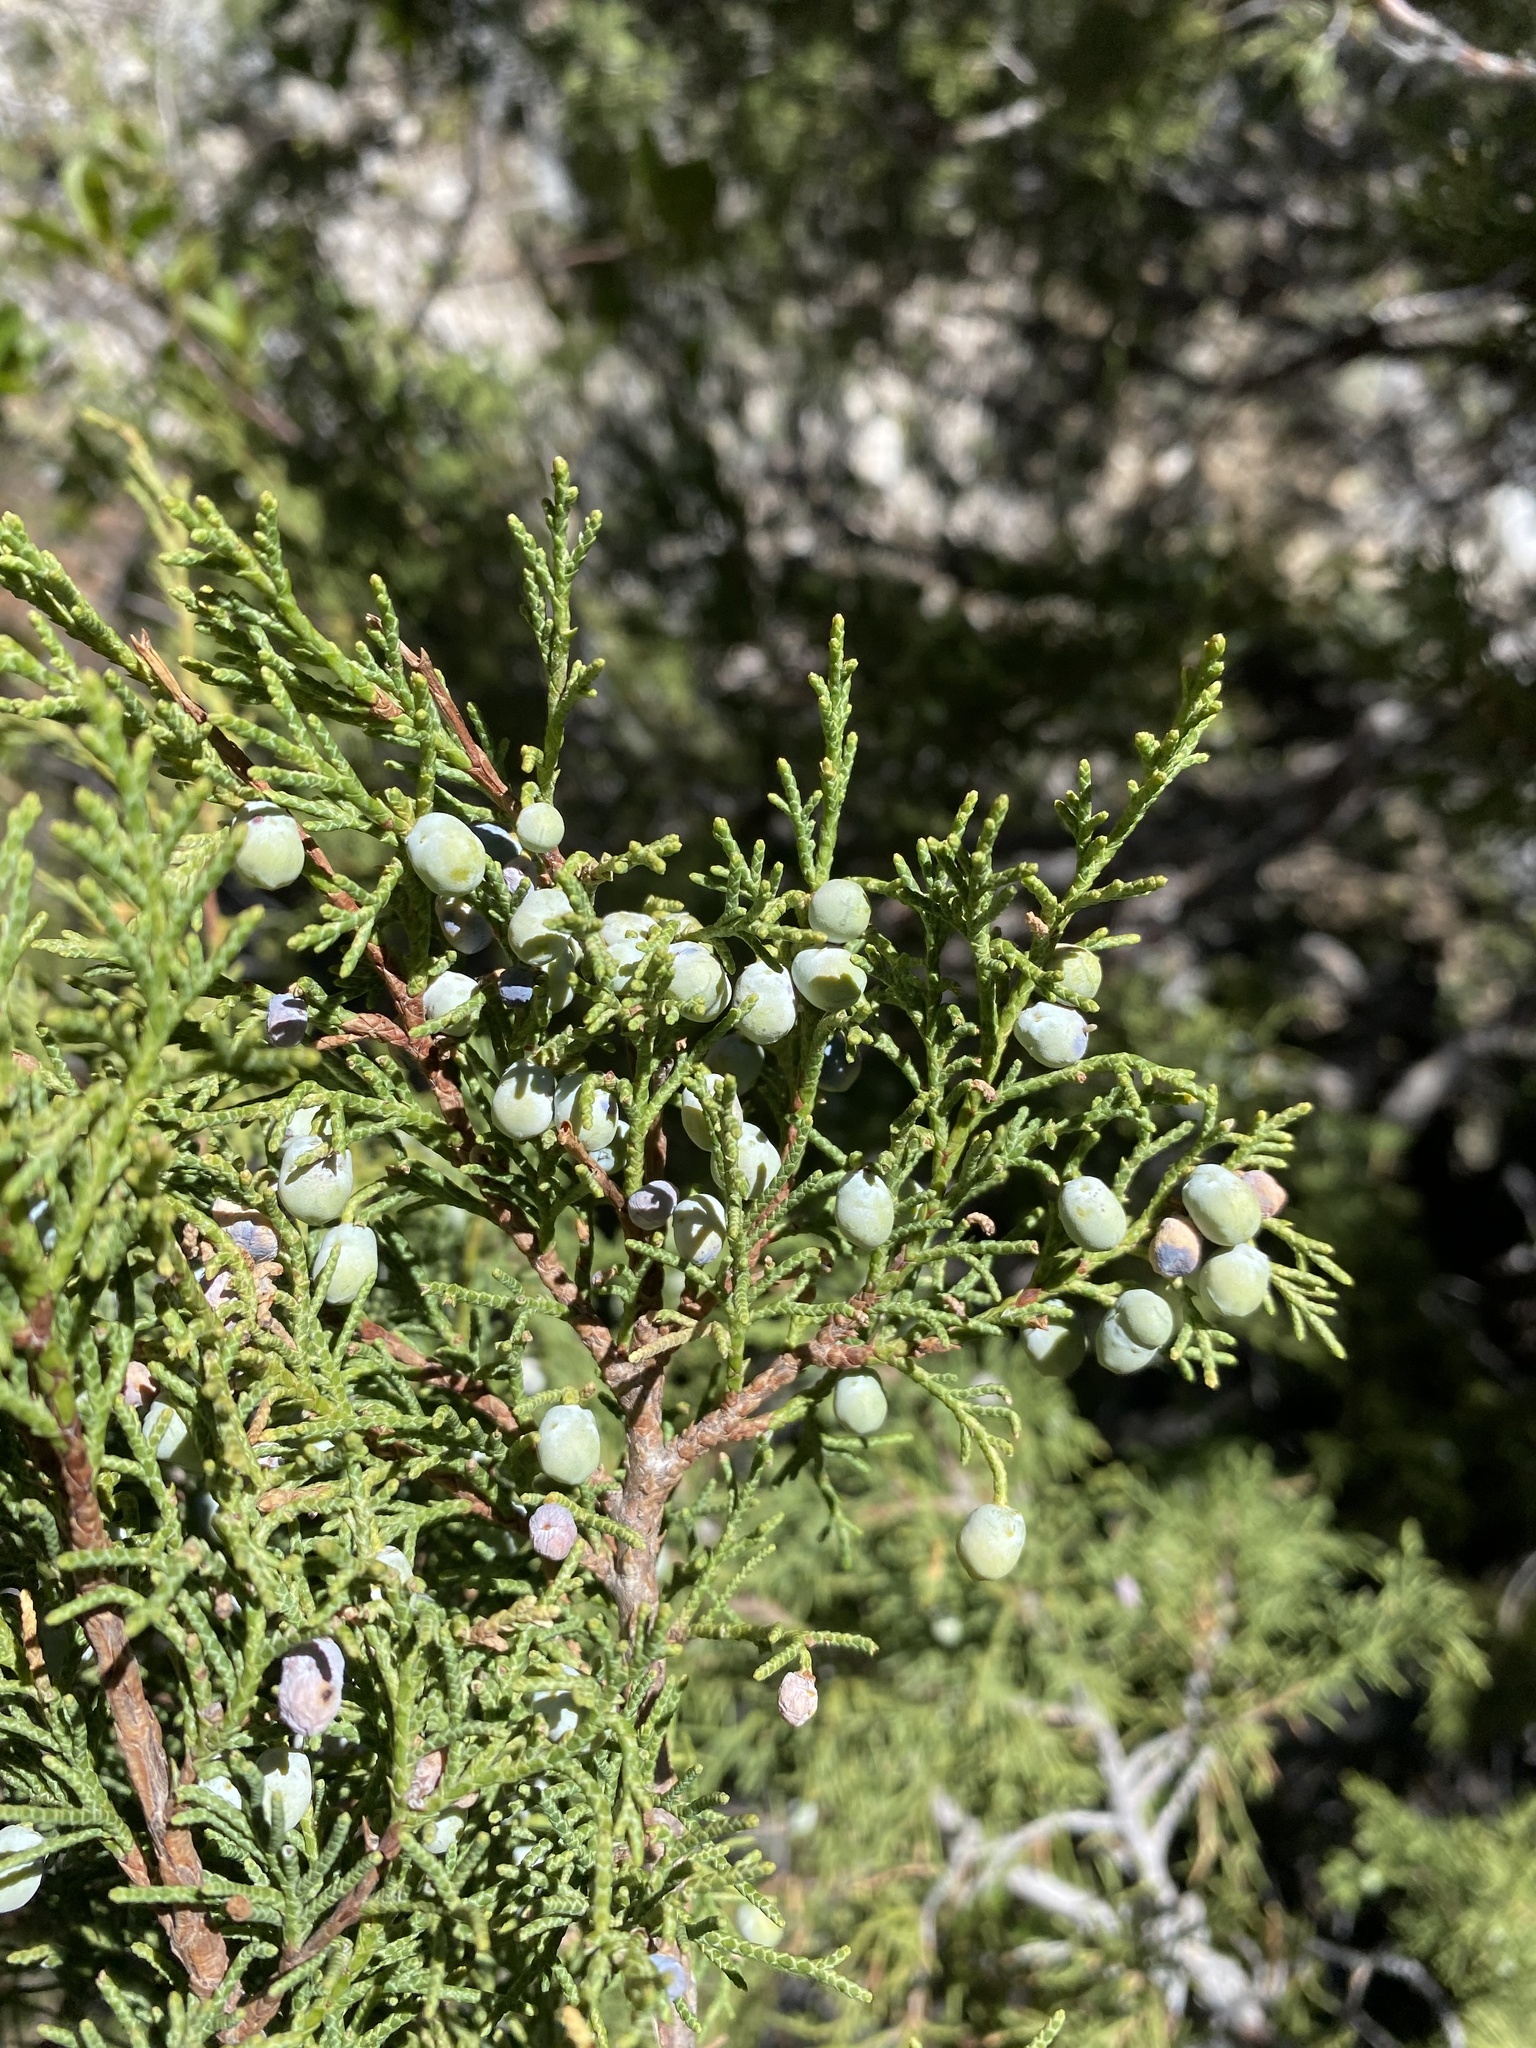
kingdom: Plantae
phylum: Tracheophyta
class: Pinopsida
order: Pinales
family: Cupressaceae
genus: Juniperus
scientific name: Juniperus scopulorum
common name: Rocky mountain juniper
